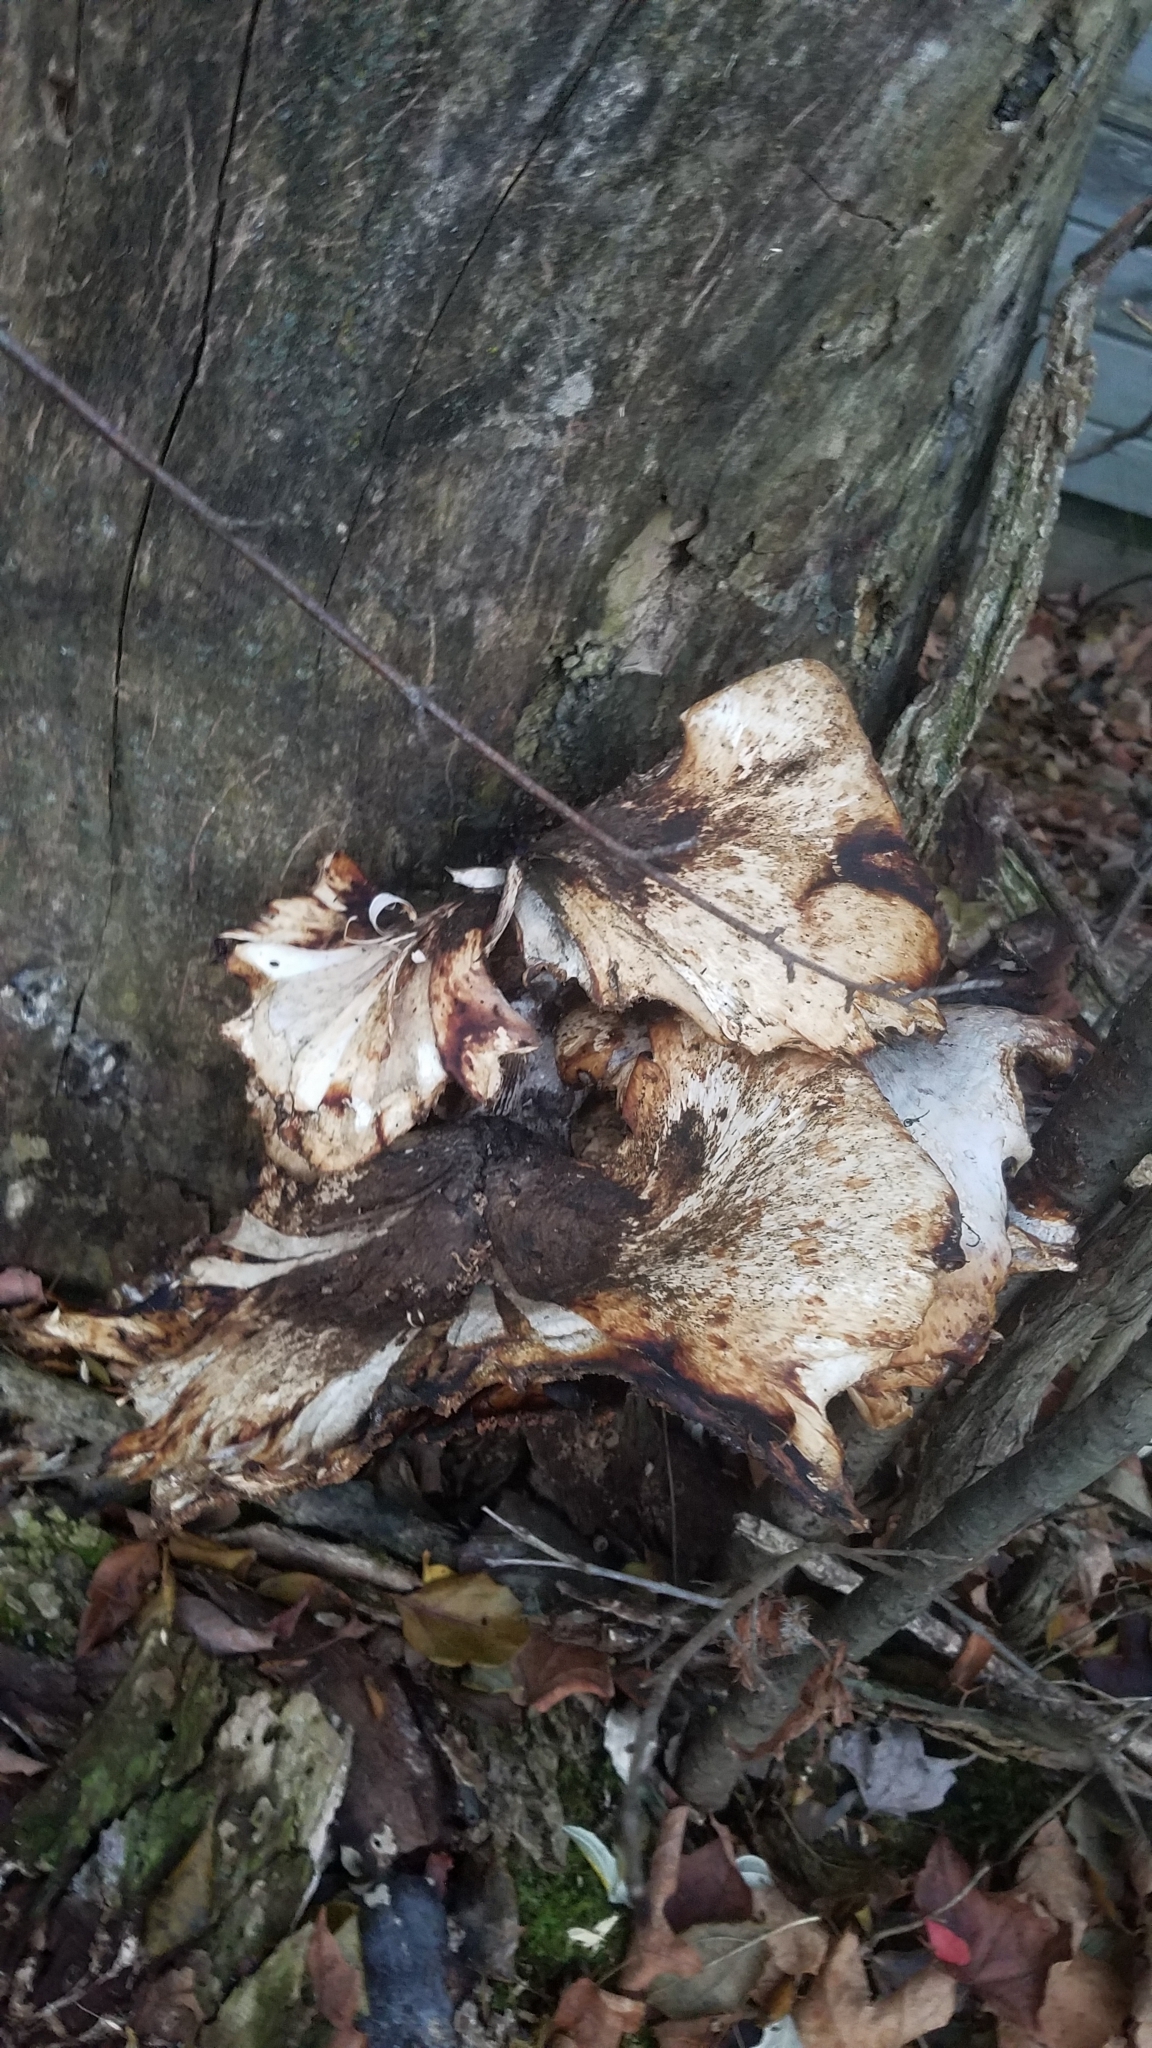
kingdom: Fungi
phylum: Basidiomycota
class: Agaricomycetes
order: Polyporales
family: Polyporaceae
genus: Picipes
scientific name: Picipes badius
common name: Bay polypore
